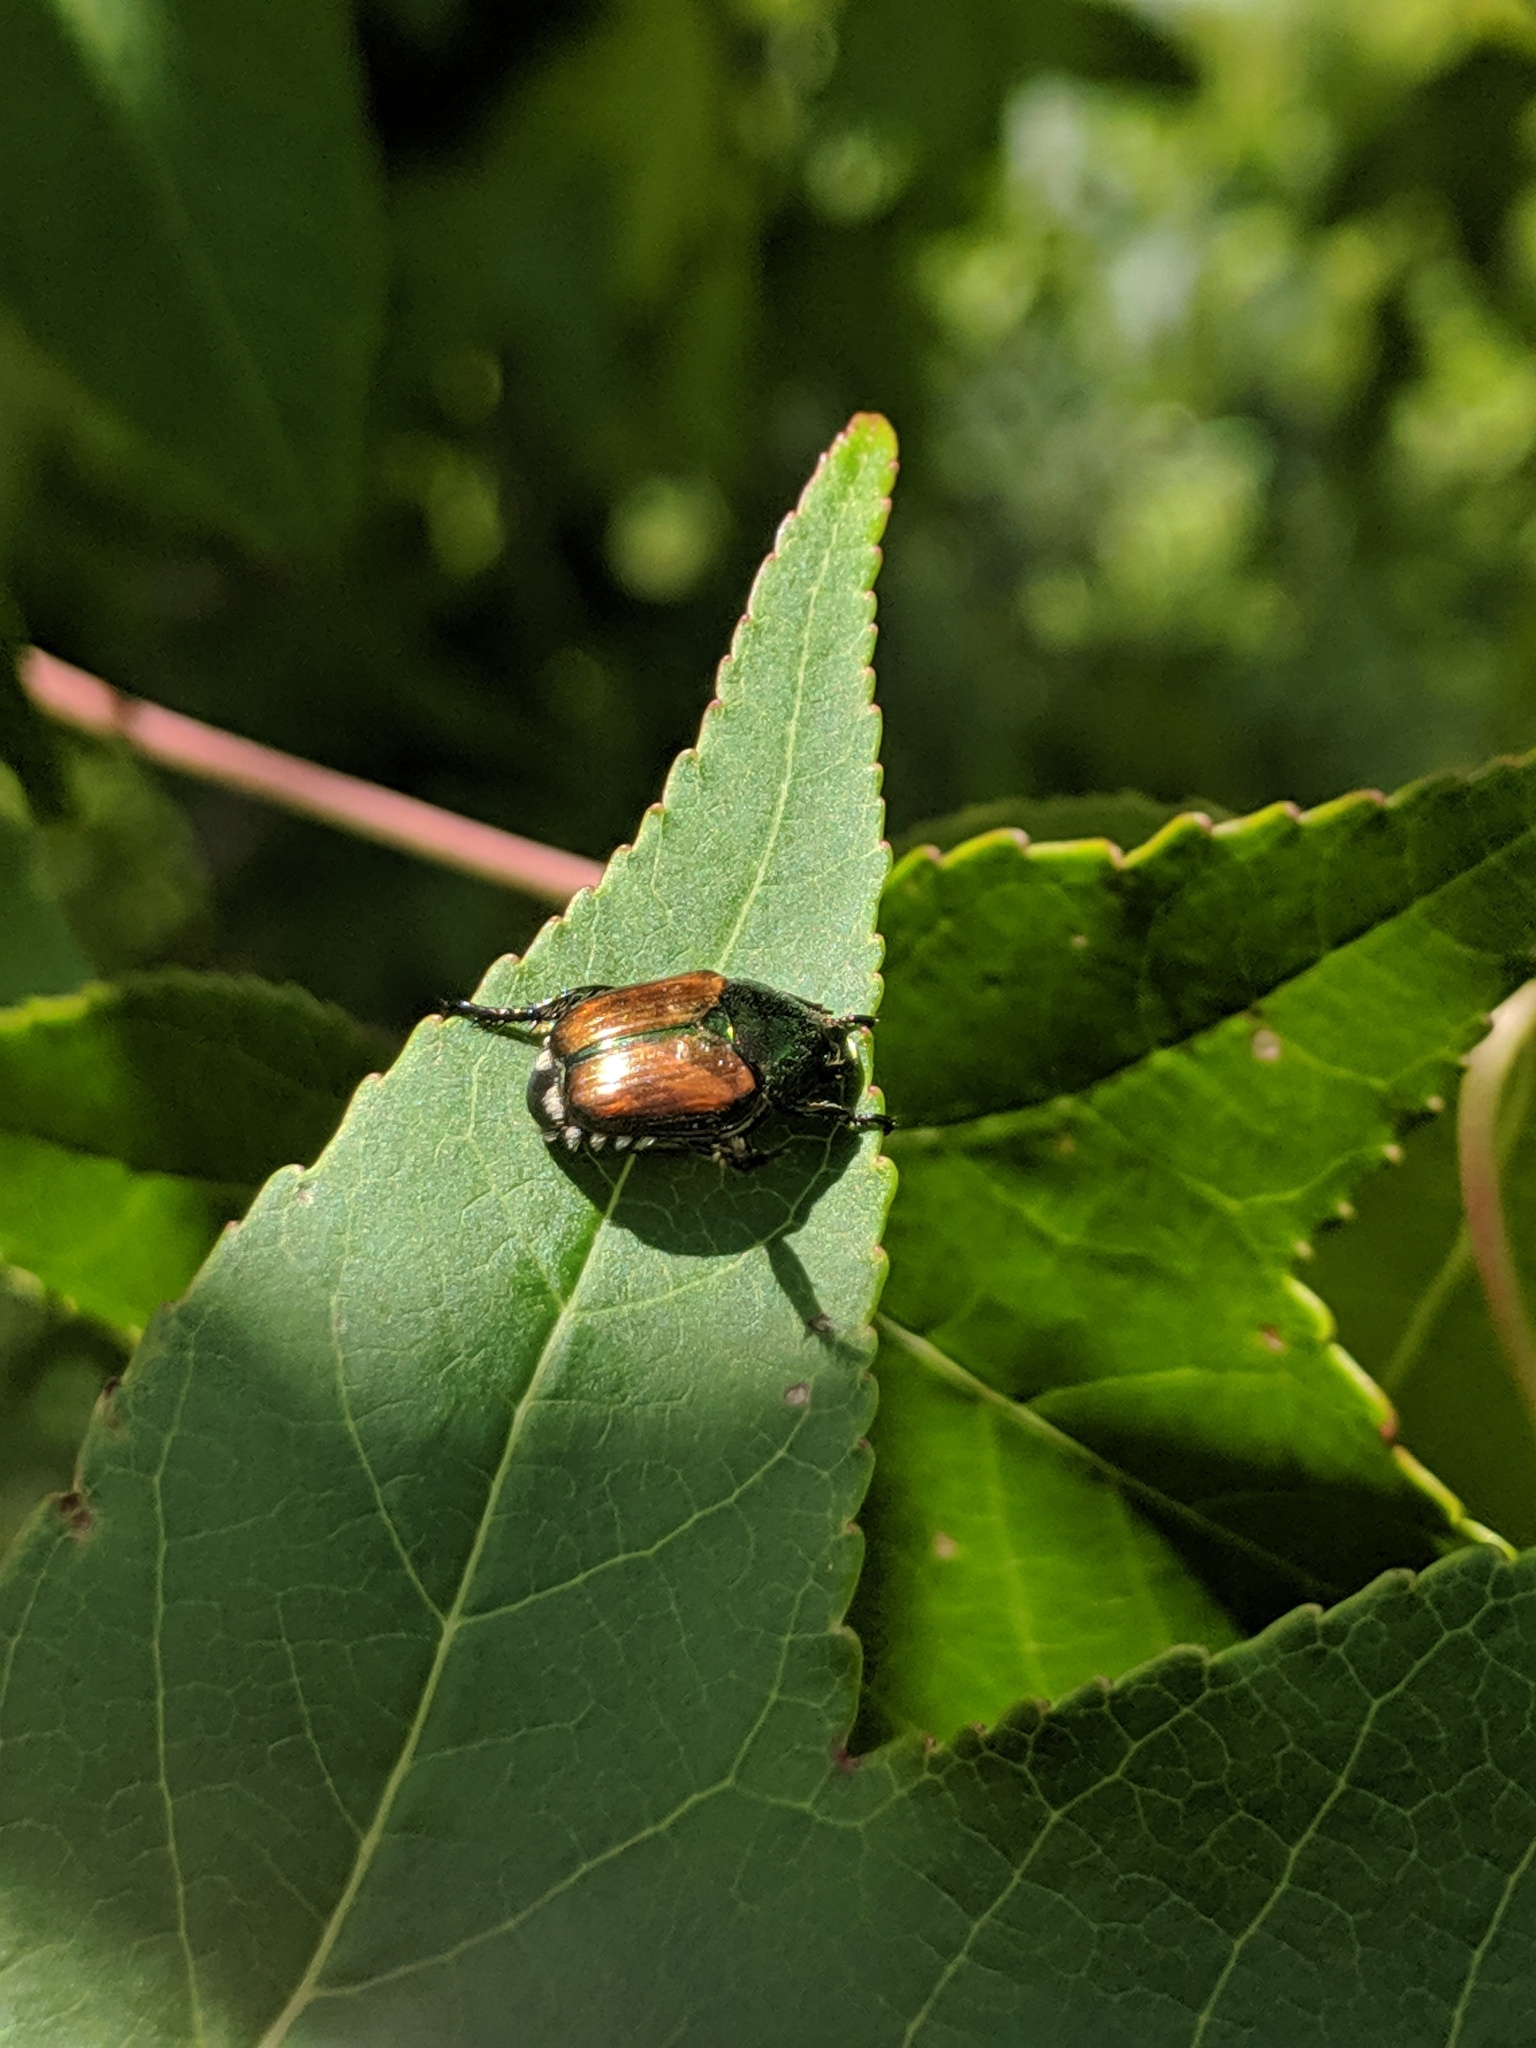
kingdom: Animalia
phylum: Arthropoda
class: Insecta
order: Coleoptera
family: Scarabaeidae
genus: Popillia
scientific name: Popillia japonica
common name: Japanese beetle
